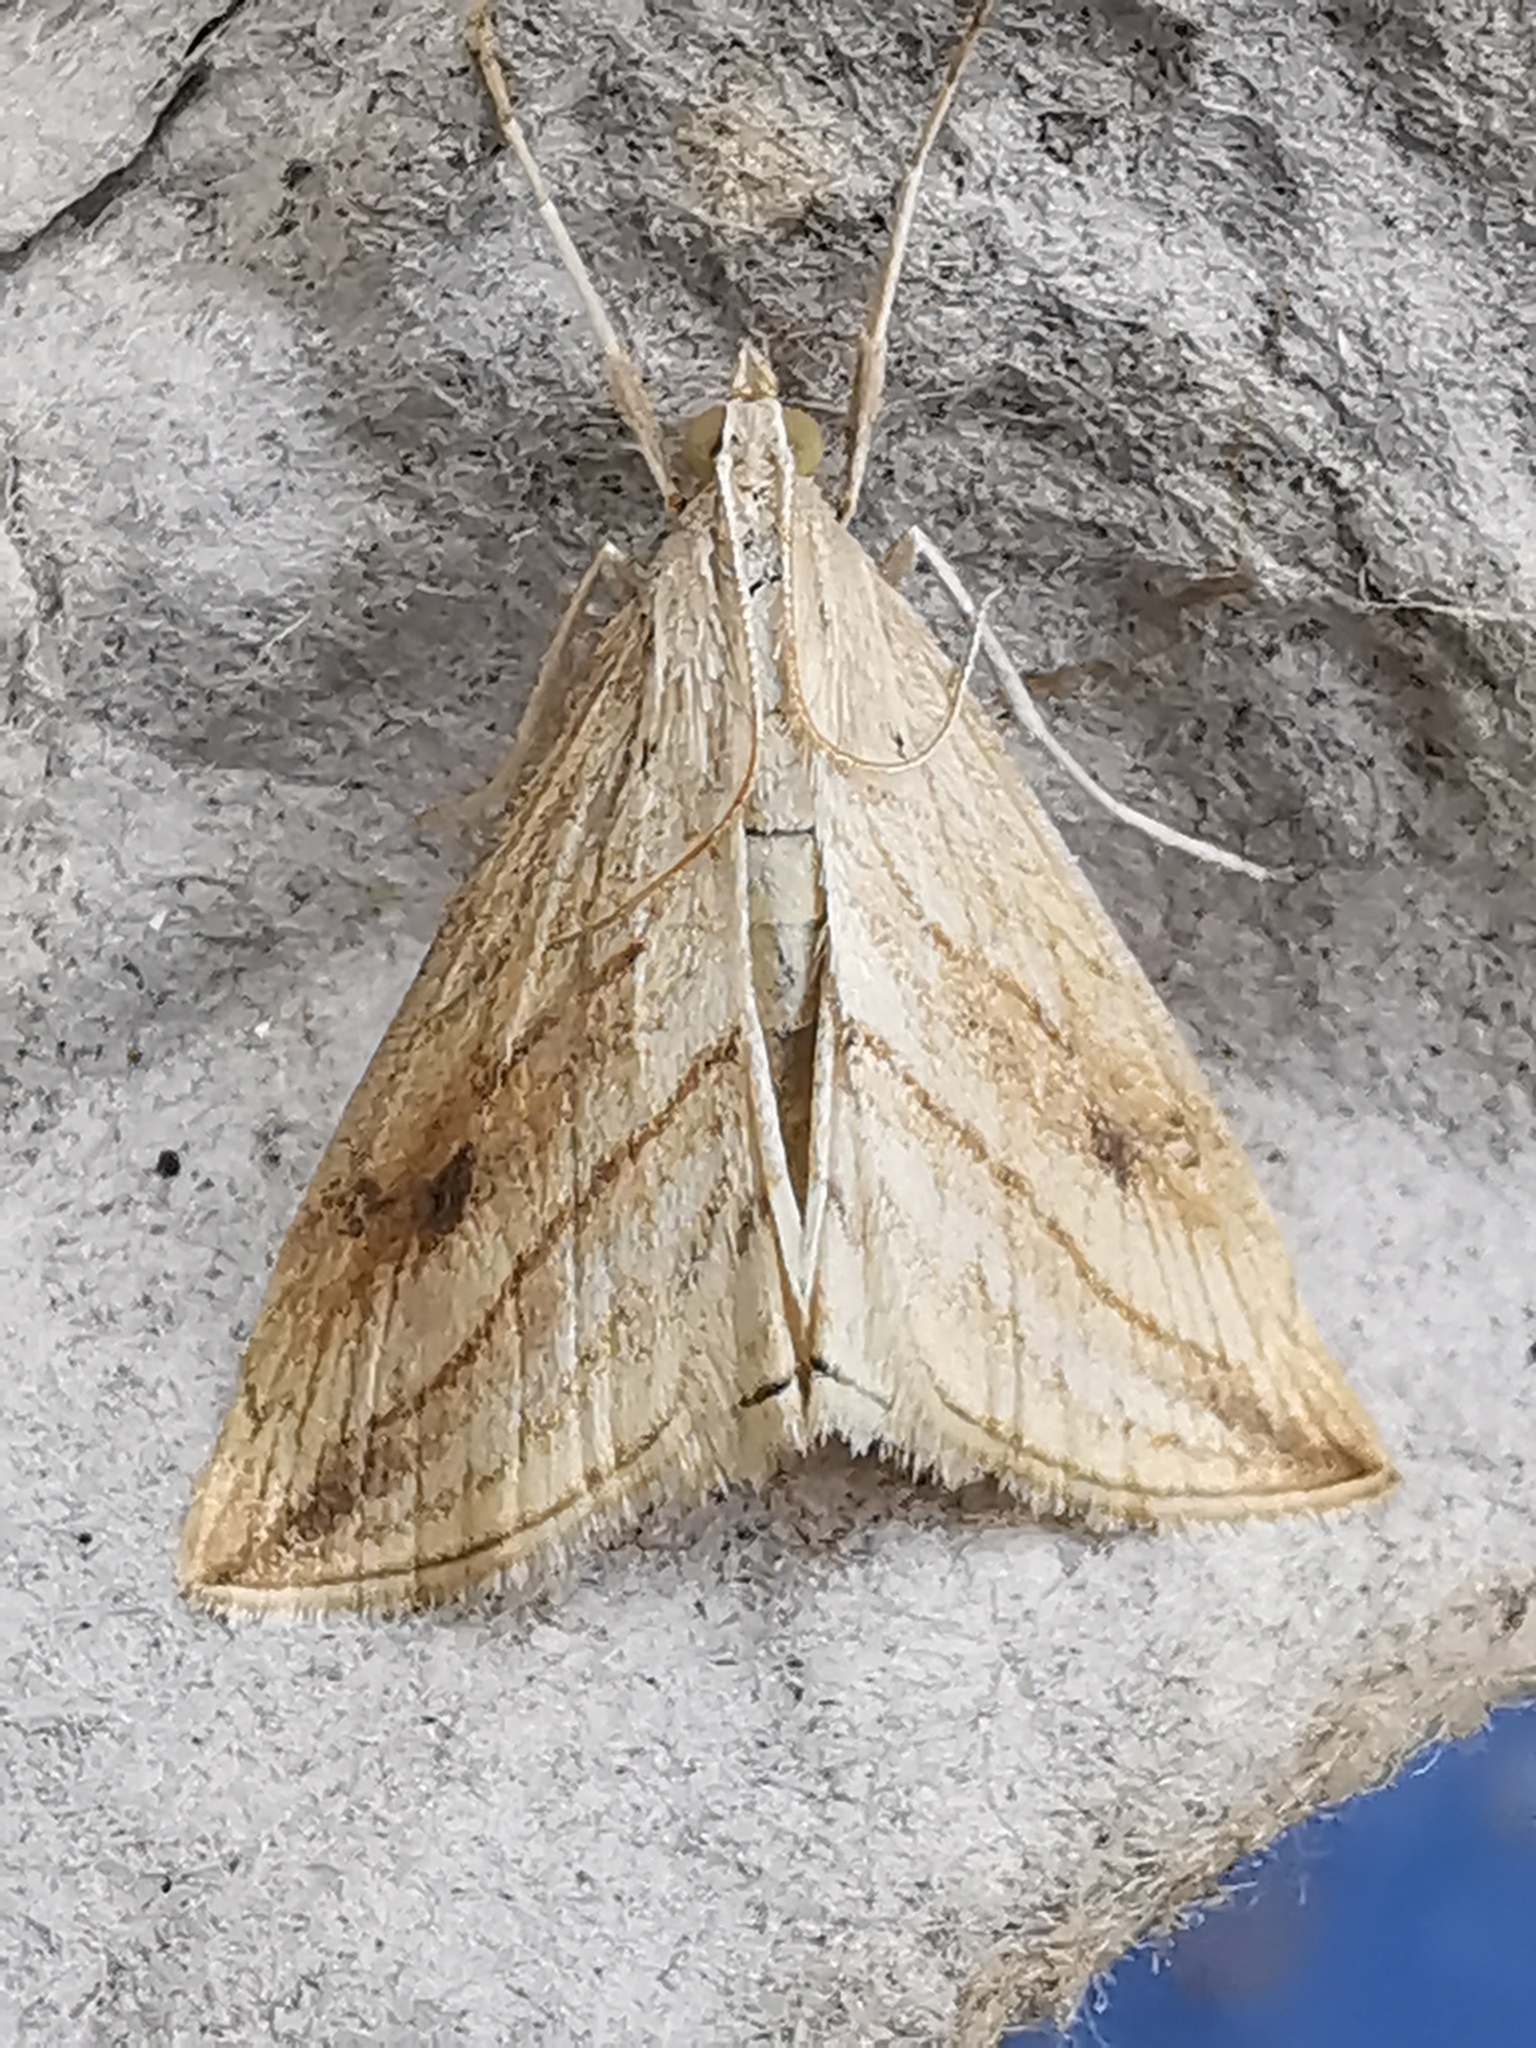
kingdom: Animalia
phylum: Arthropoda
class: Insecta
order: Lepidoptera
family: Crambidae
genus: Evergestis
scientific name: Evergestis forficalis
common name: Garden pebble
